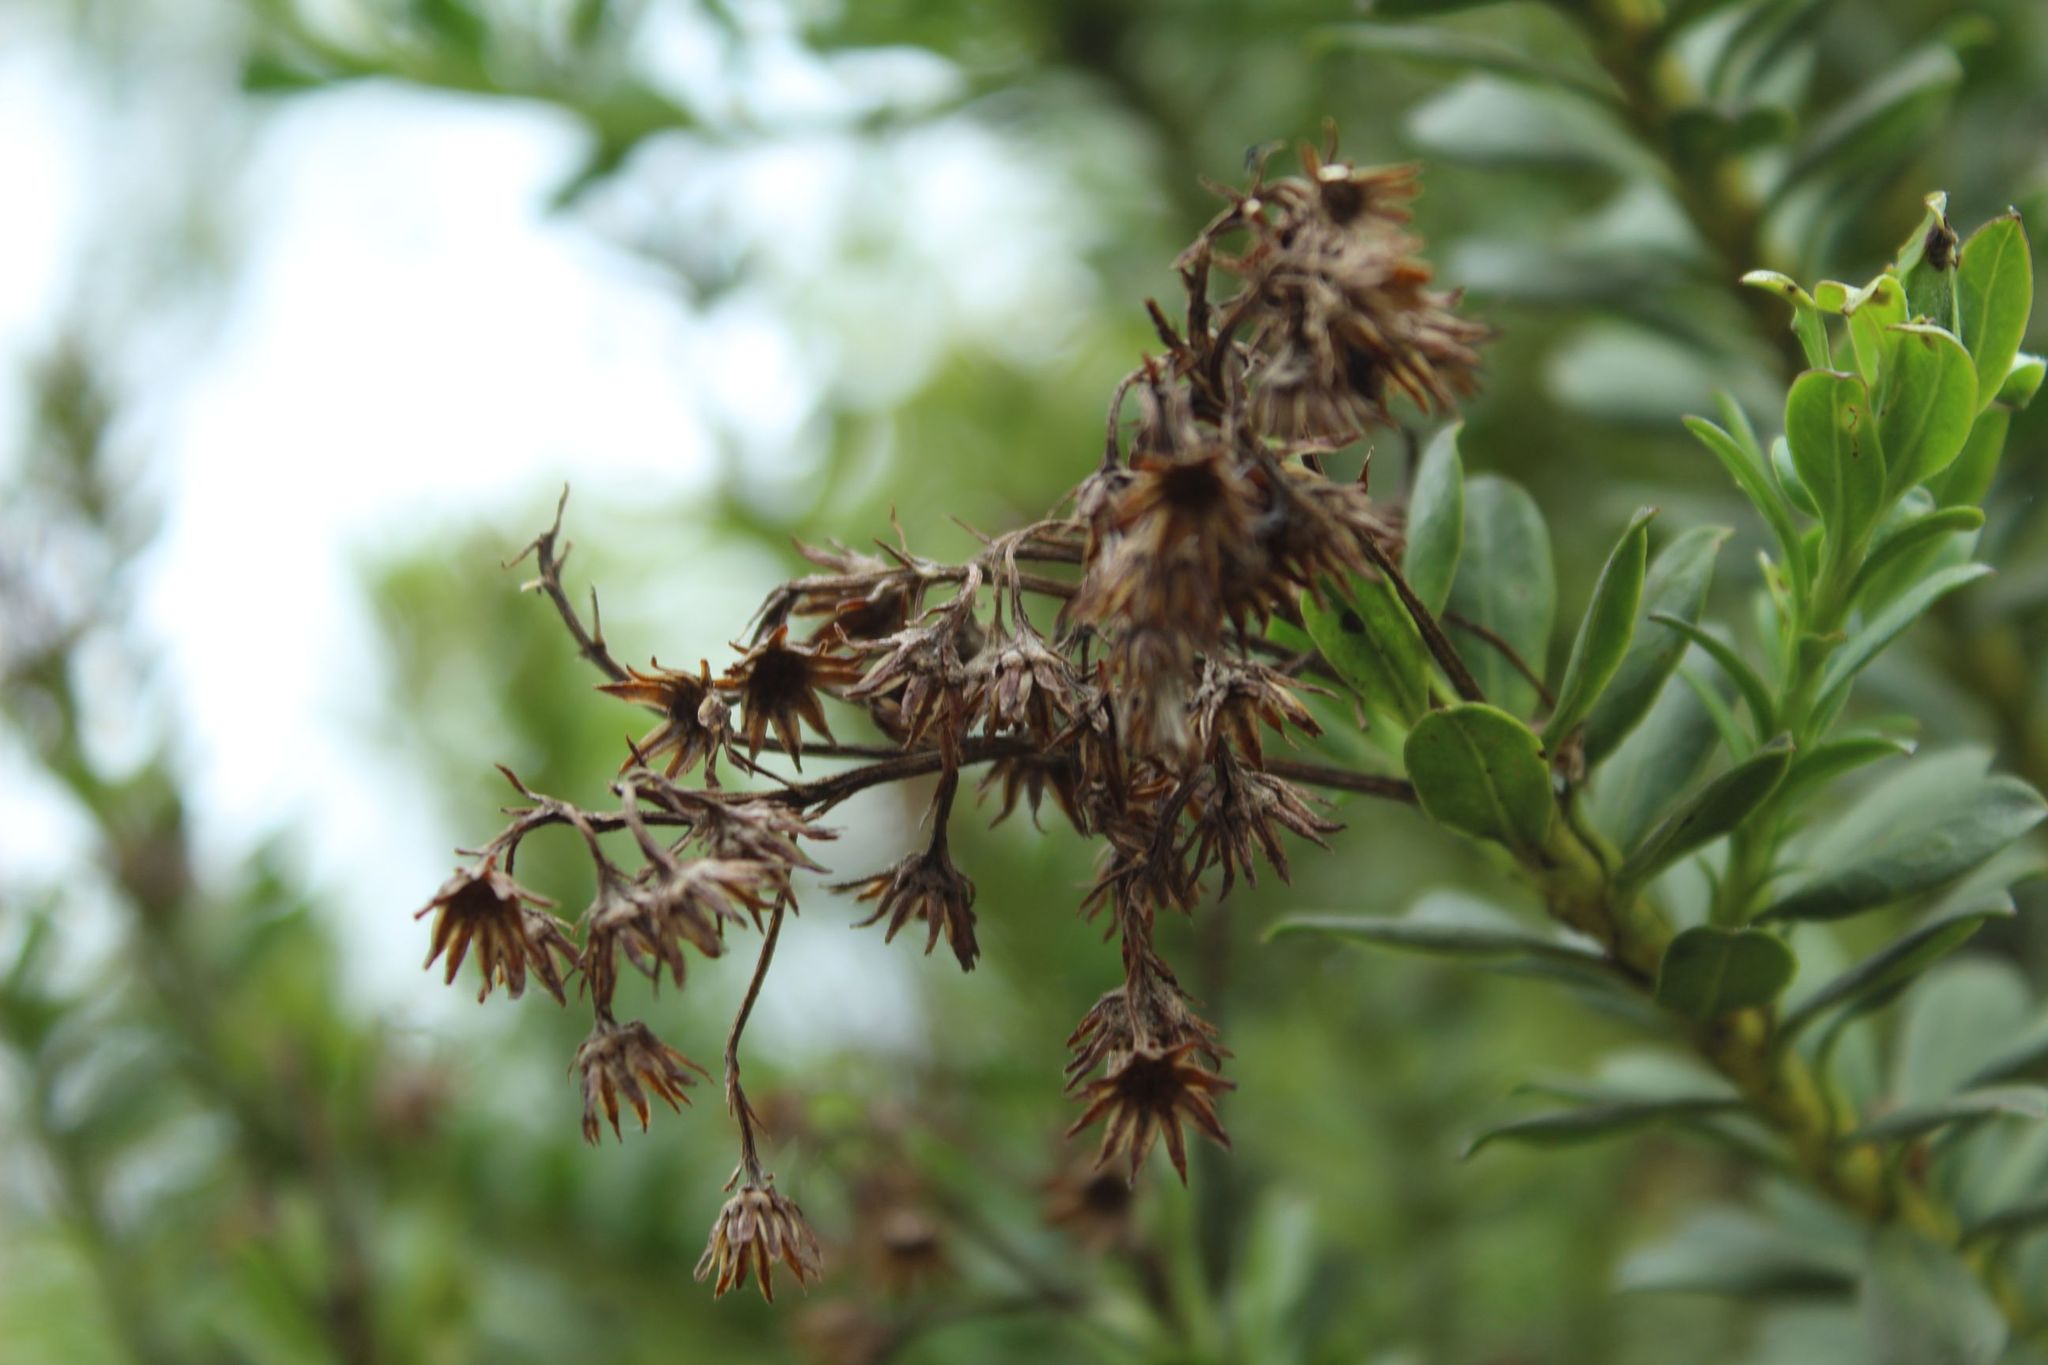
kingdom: Plantae
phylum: Tracheophyta
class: Magnoliopsida
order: Asterales
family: Asteraceae
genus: Monticalia
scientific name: Monticalia corymbosa
